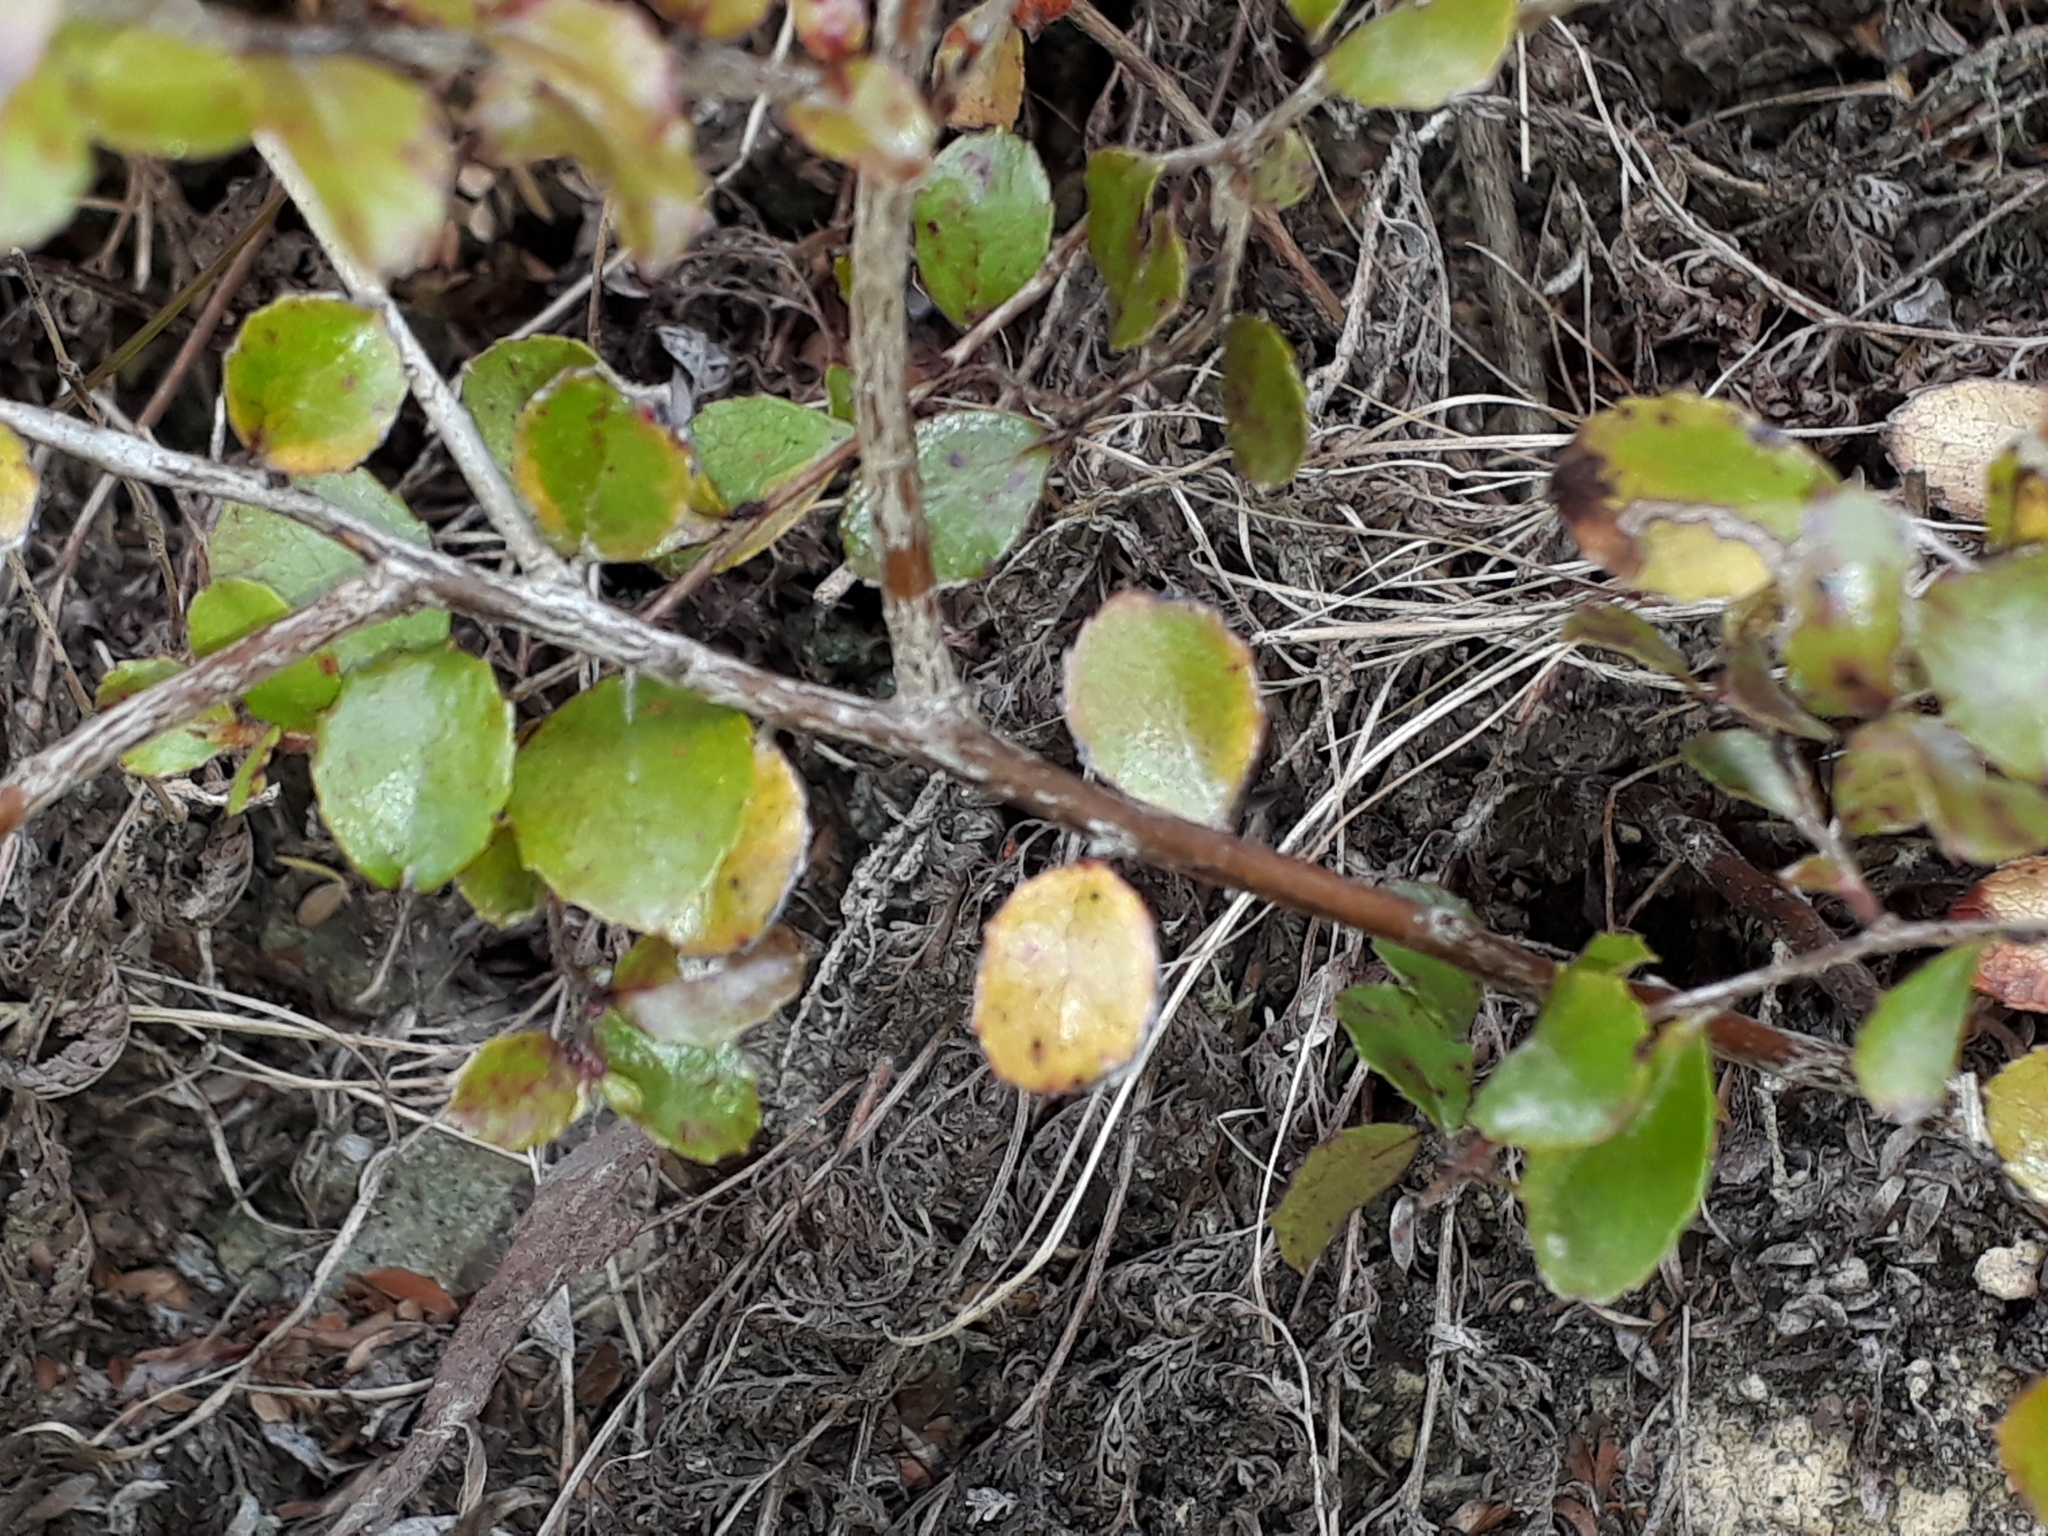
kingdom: Plantae
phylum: Tracheophyta
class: Magnoliopsida
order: Ericales
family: Ericaceae
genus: Gaultheria
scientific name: Gaultheria antipoda
